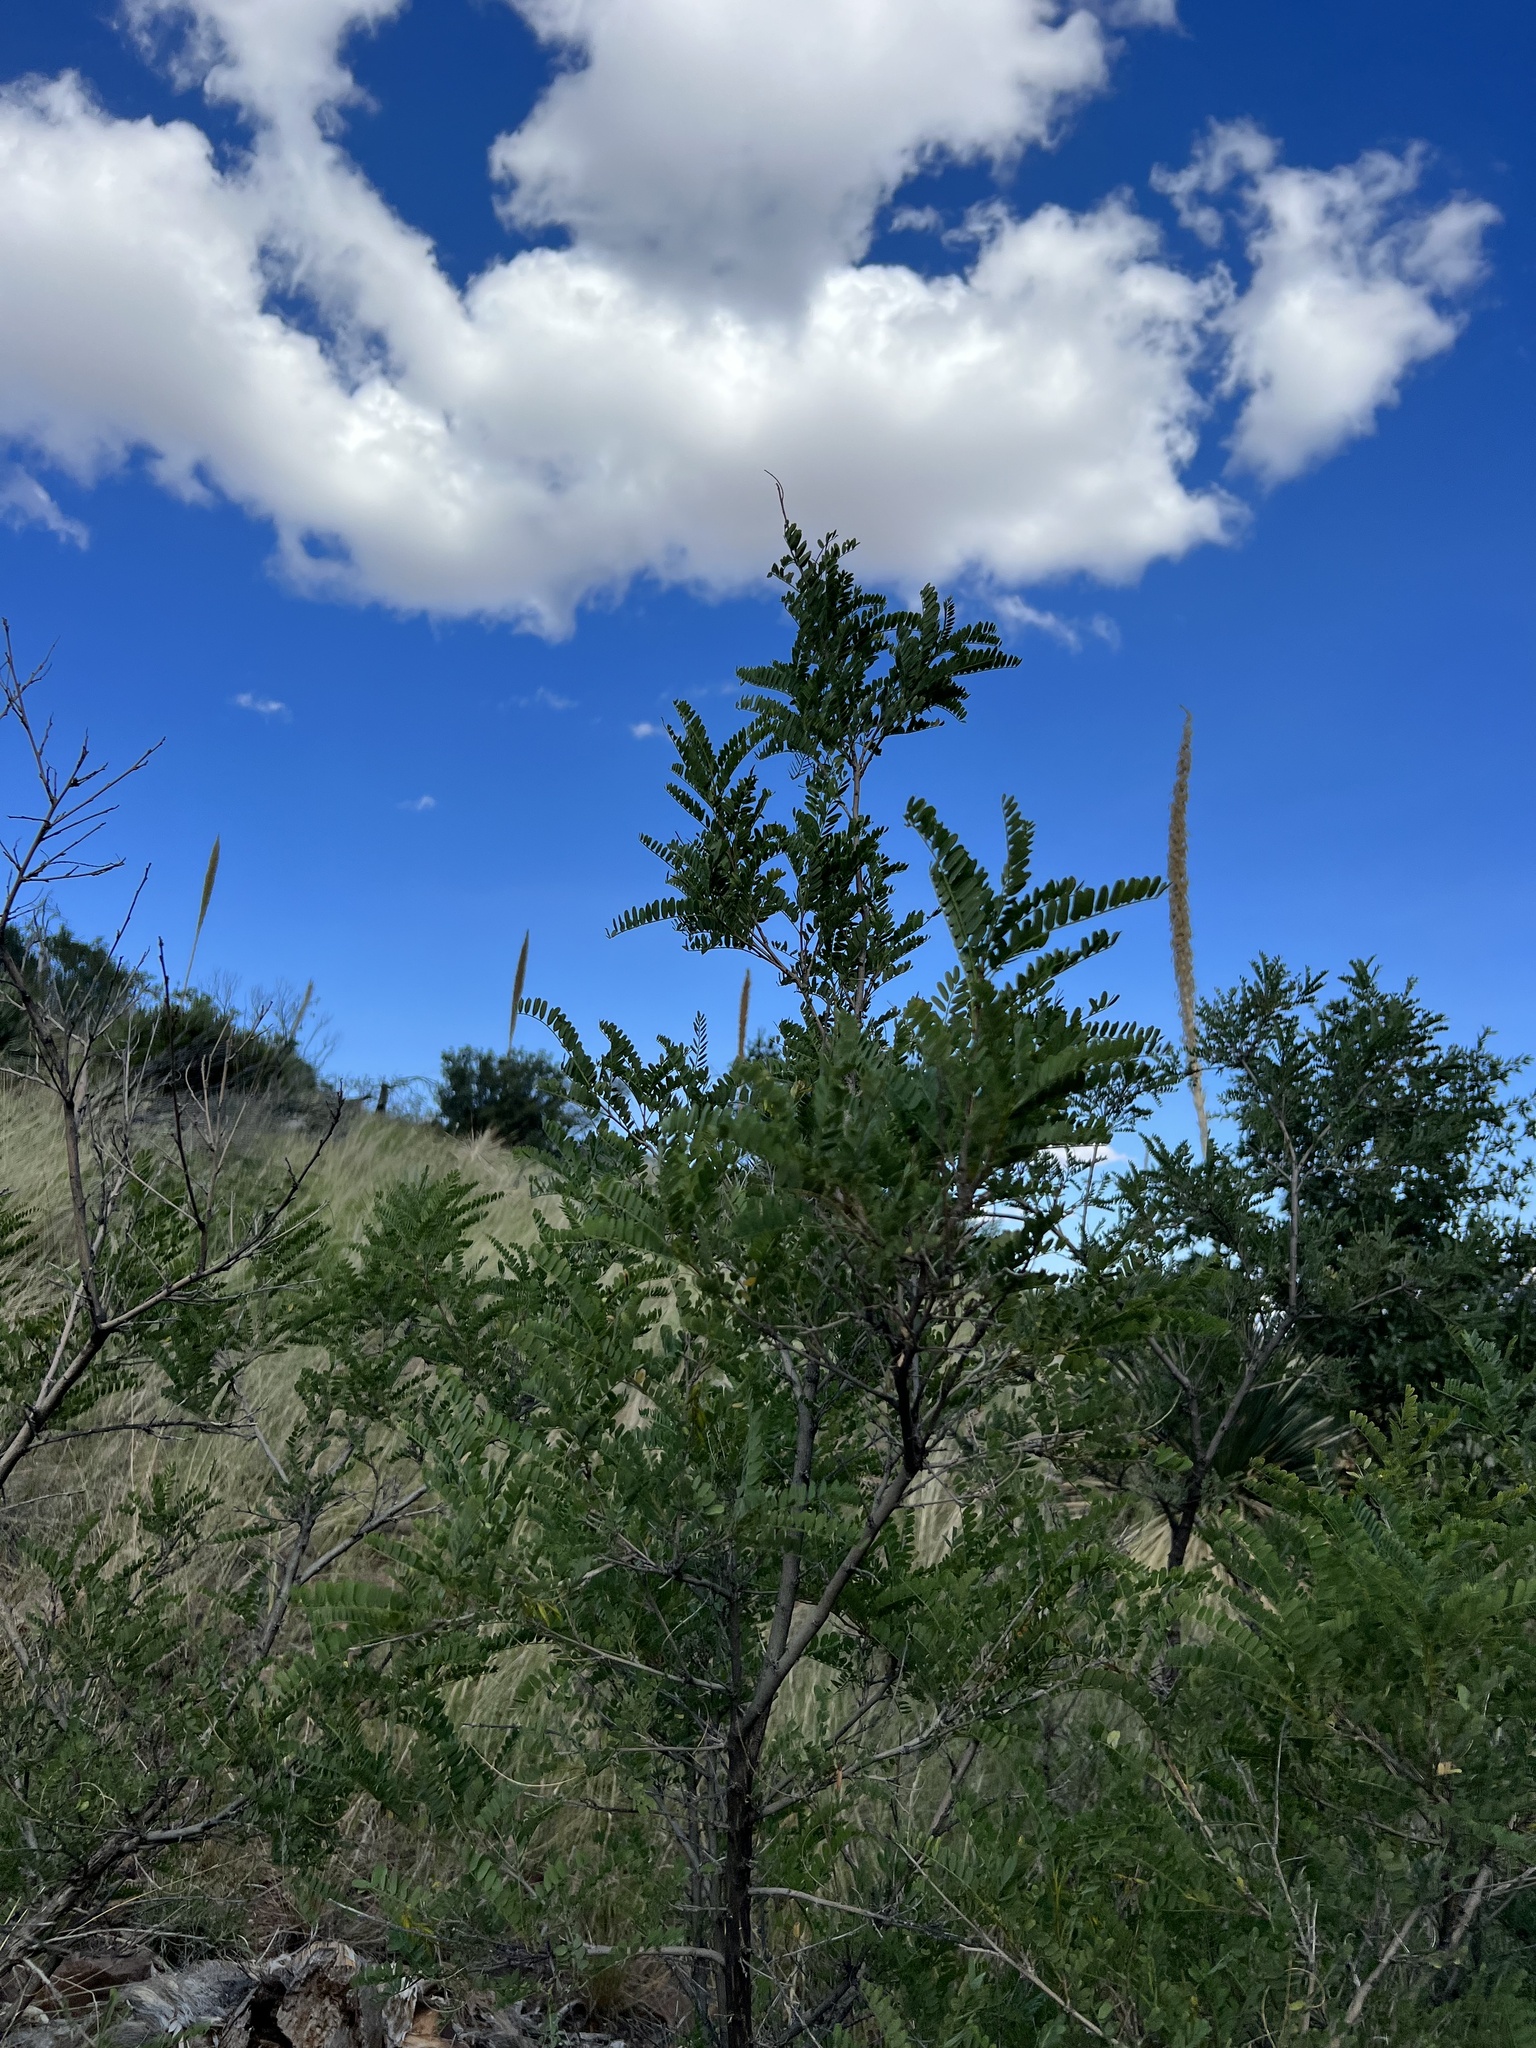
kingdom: Plantae
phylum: Tracheophyta
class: Magnoliopsida
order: Fabales
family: Fabaceae
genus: Eysenhardtia
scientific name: Eysenhardtia orthocarpa
